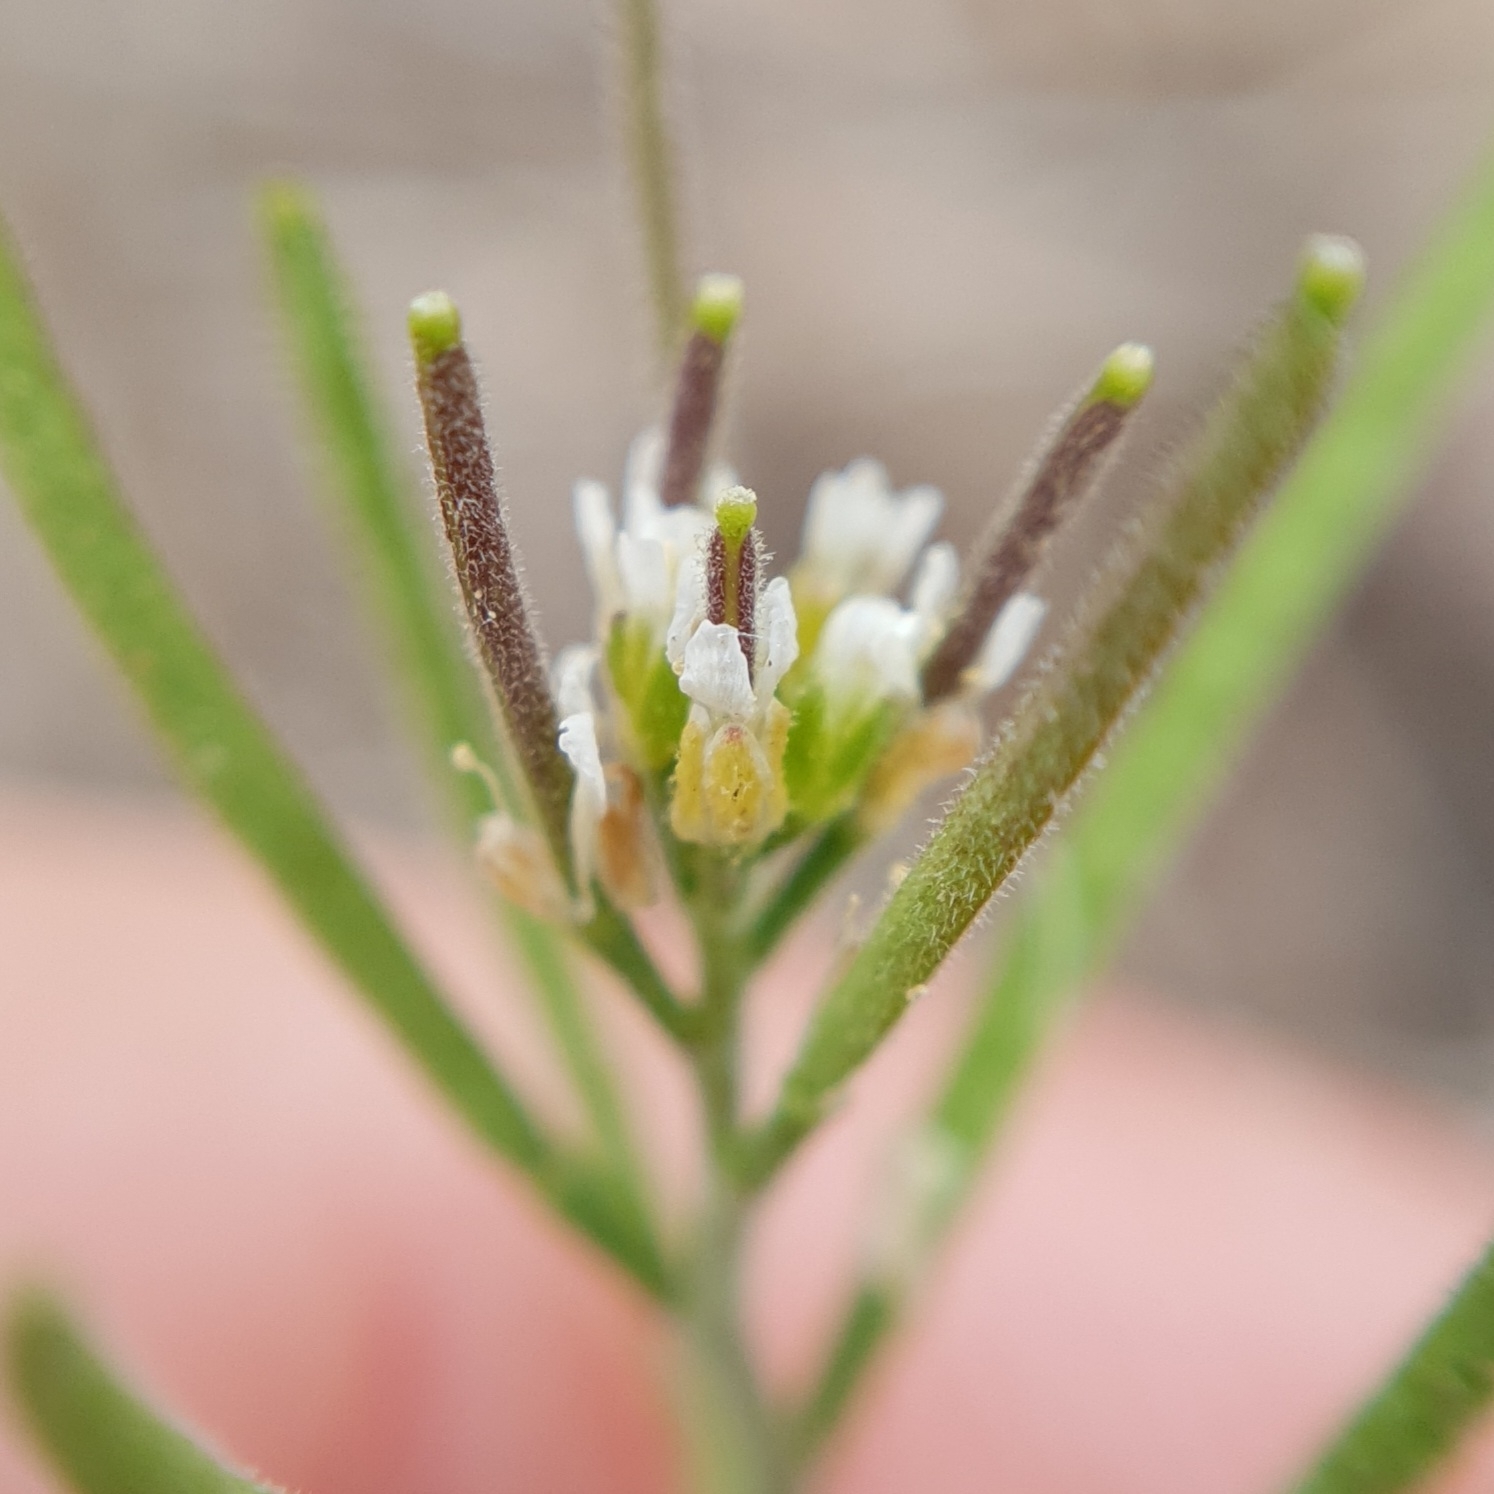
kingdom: Plantae
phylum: Tracheophyta
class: Magnoliopsida
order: Brassicales
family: Brassicaceae
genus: Arabis
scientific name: Arabis auriculata
